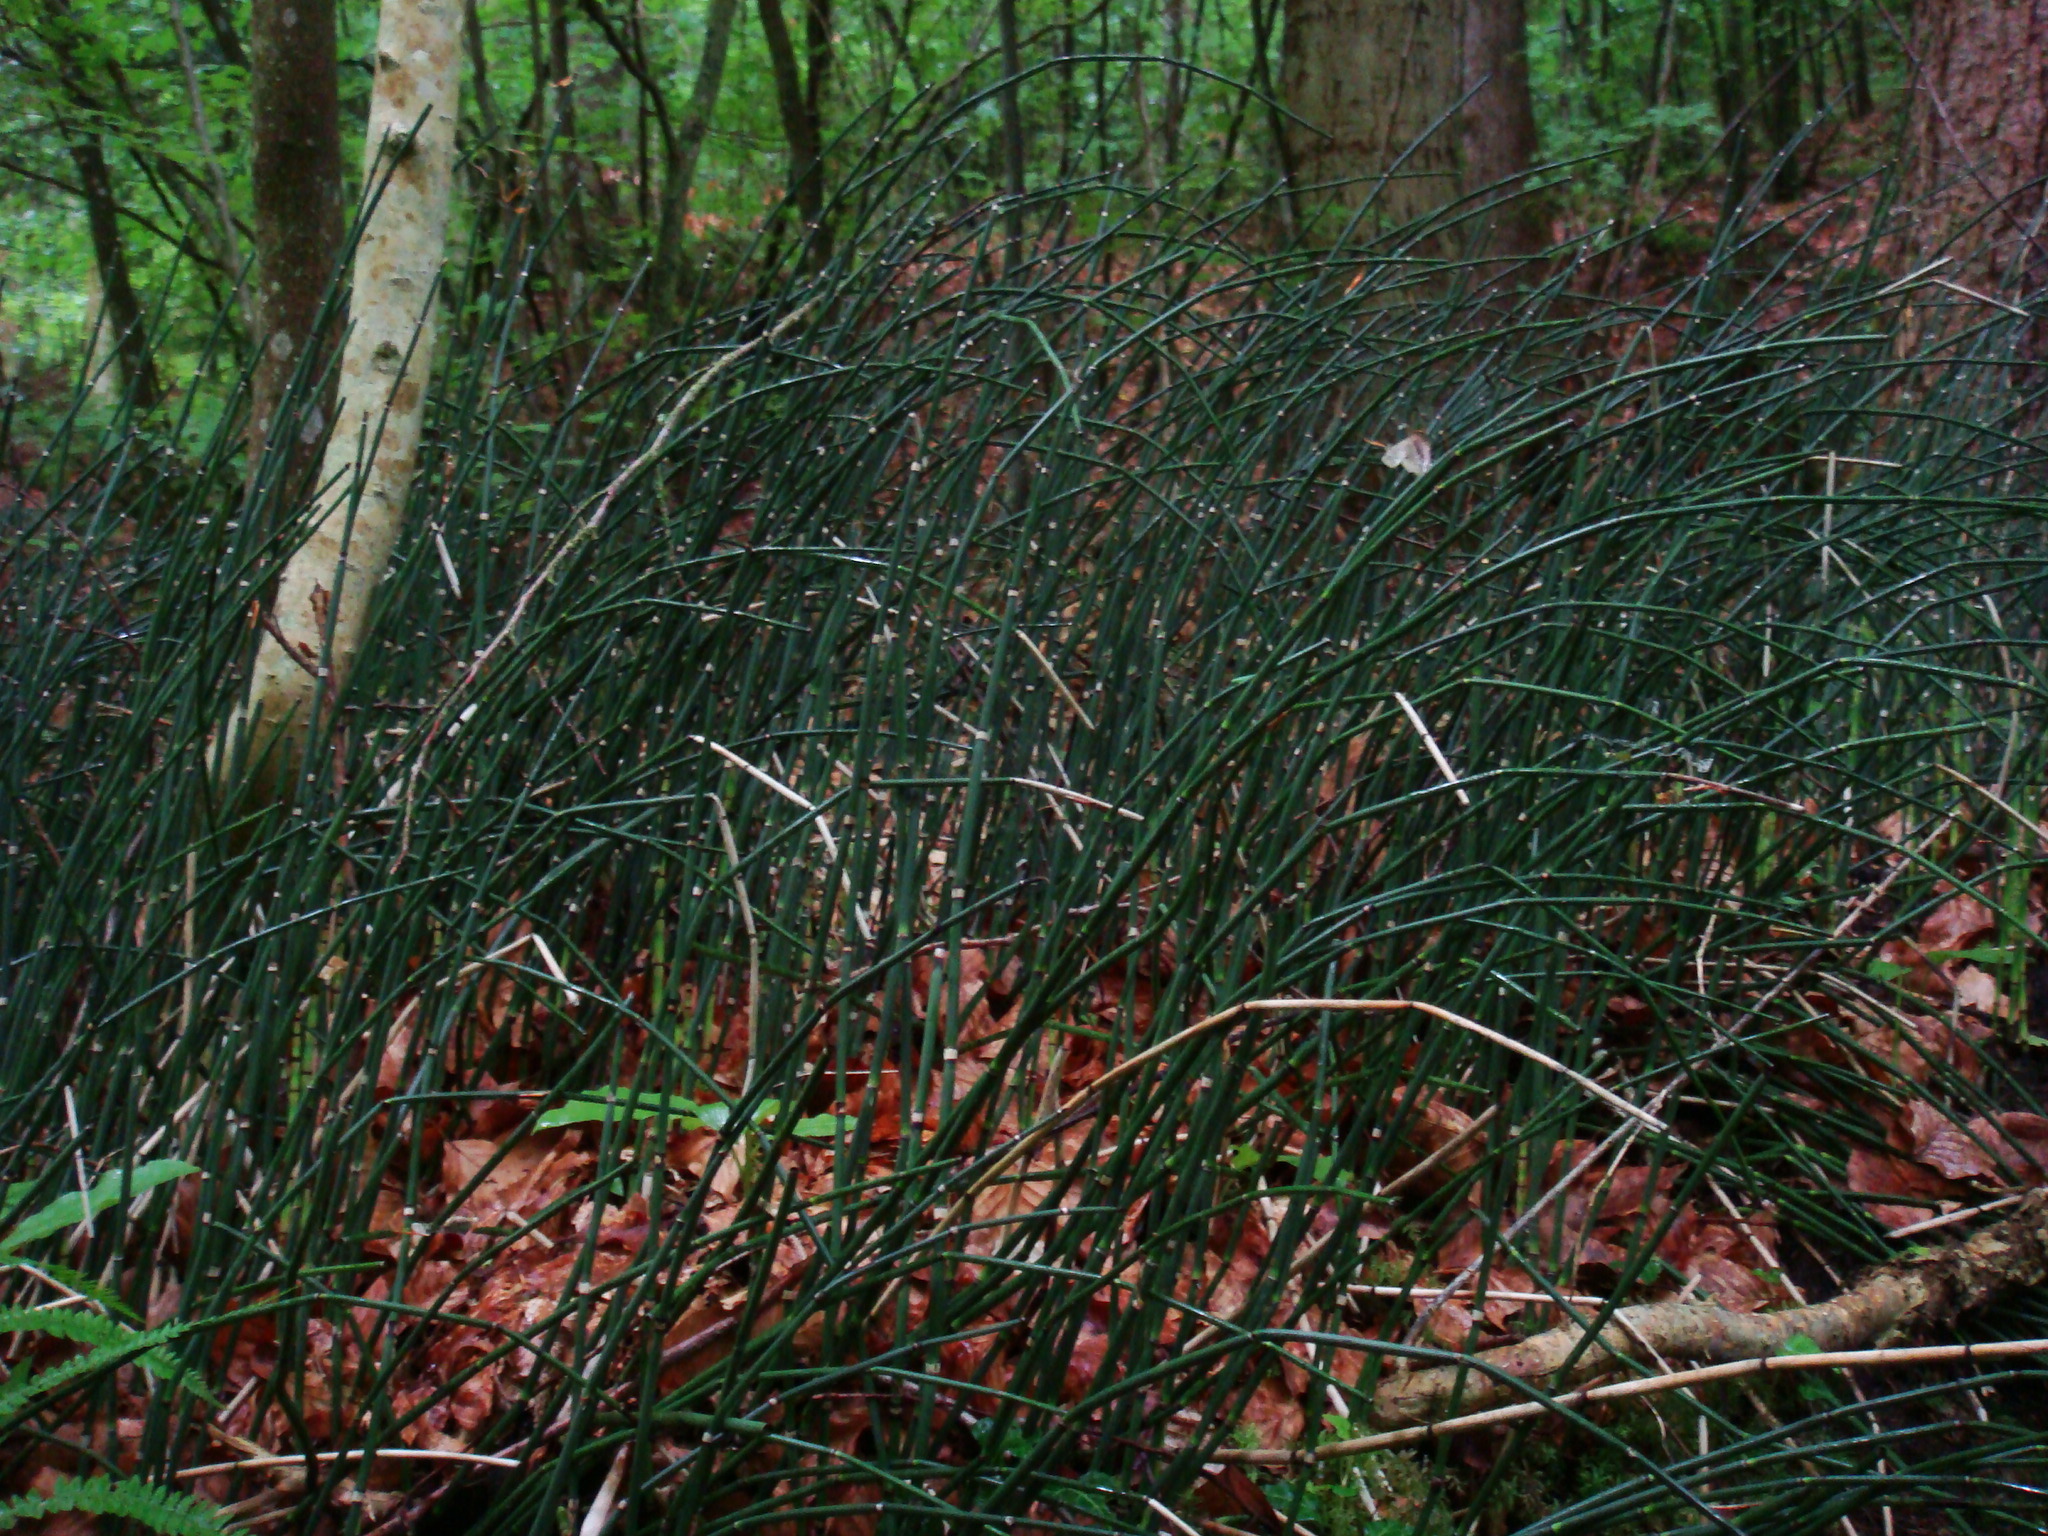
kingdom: Plantae
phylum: Tracheophyta
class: Polypodiopsida
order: Equisetales
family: Equisetaceae
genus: Equisetum
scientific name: Equisetum hyemale
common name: Rough horsetail
